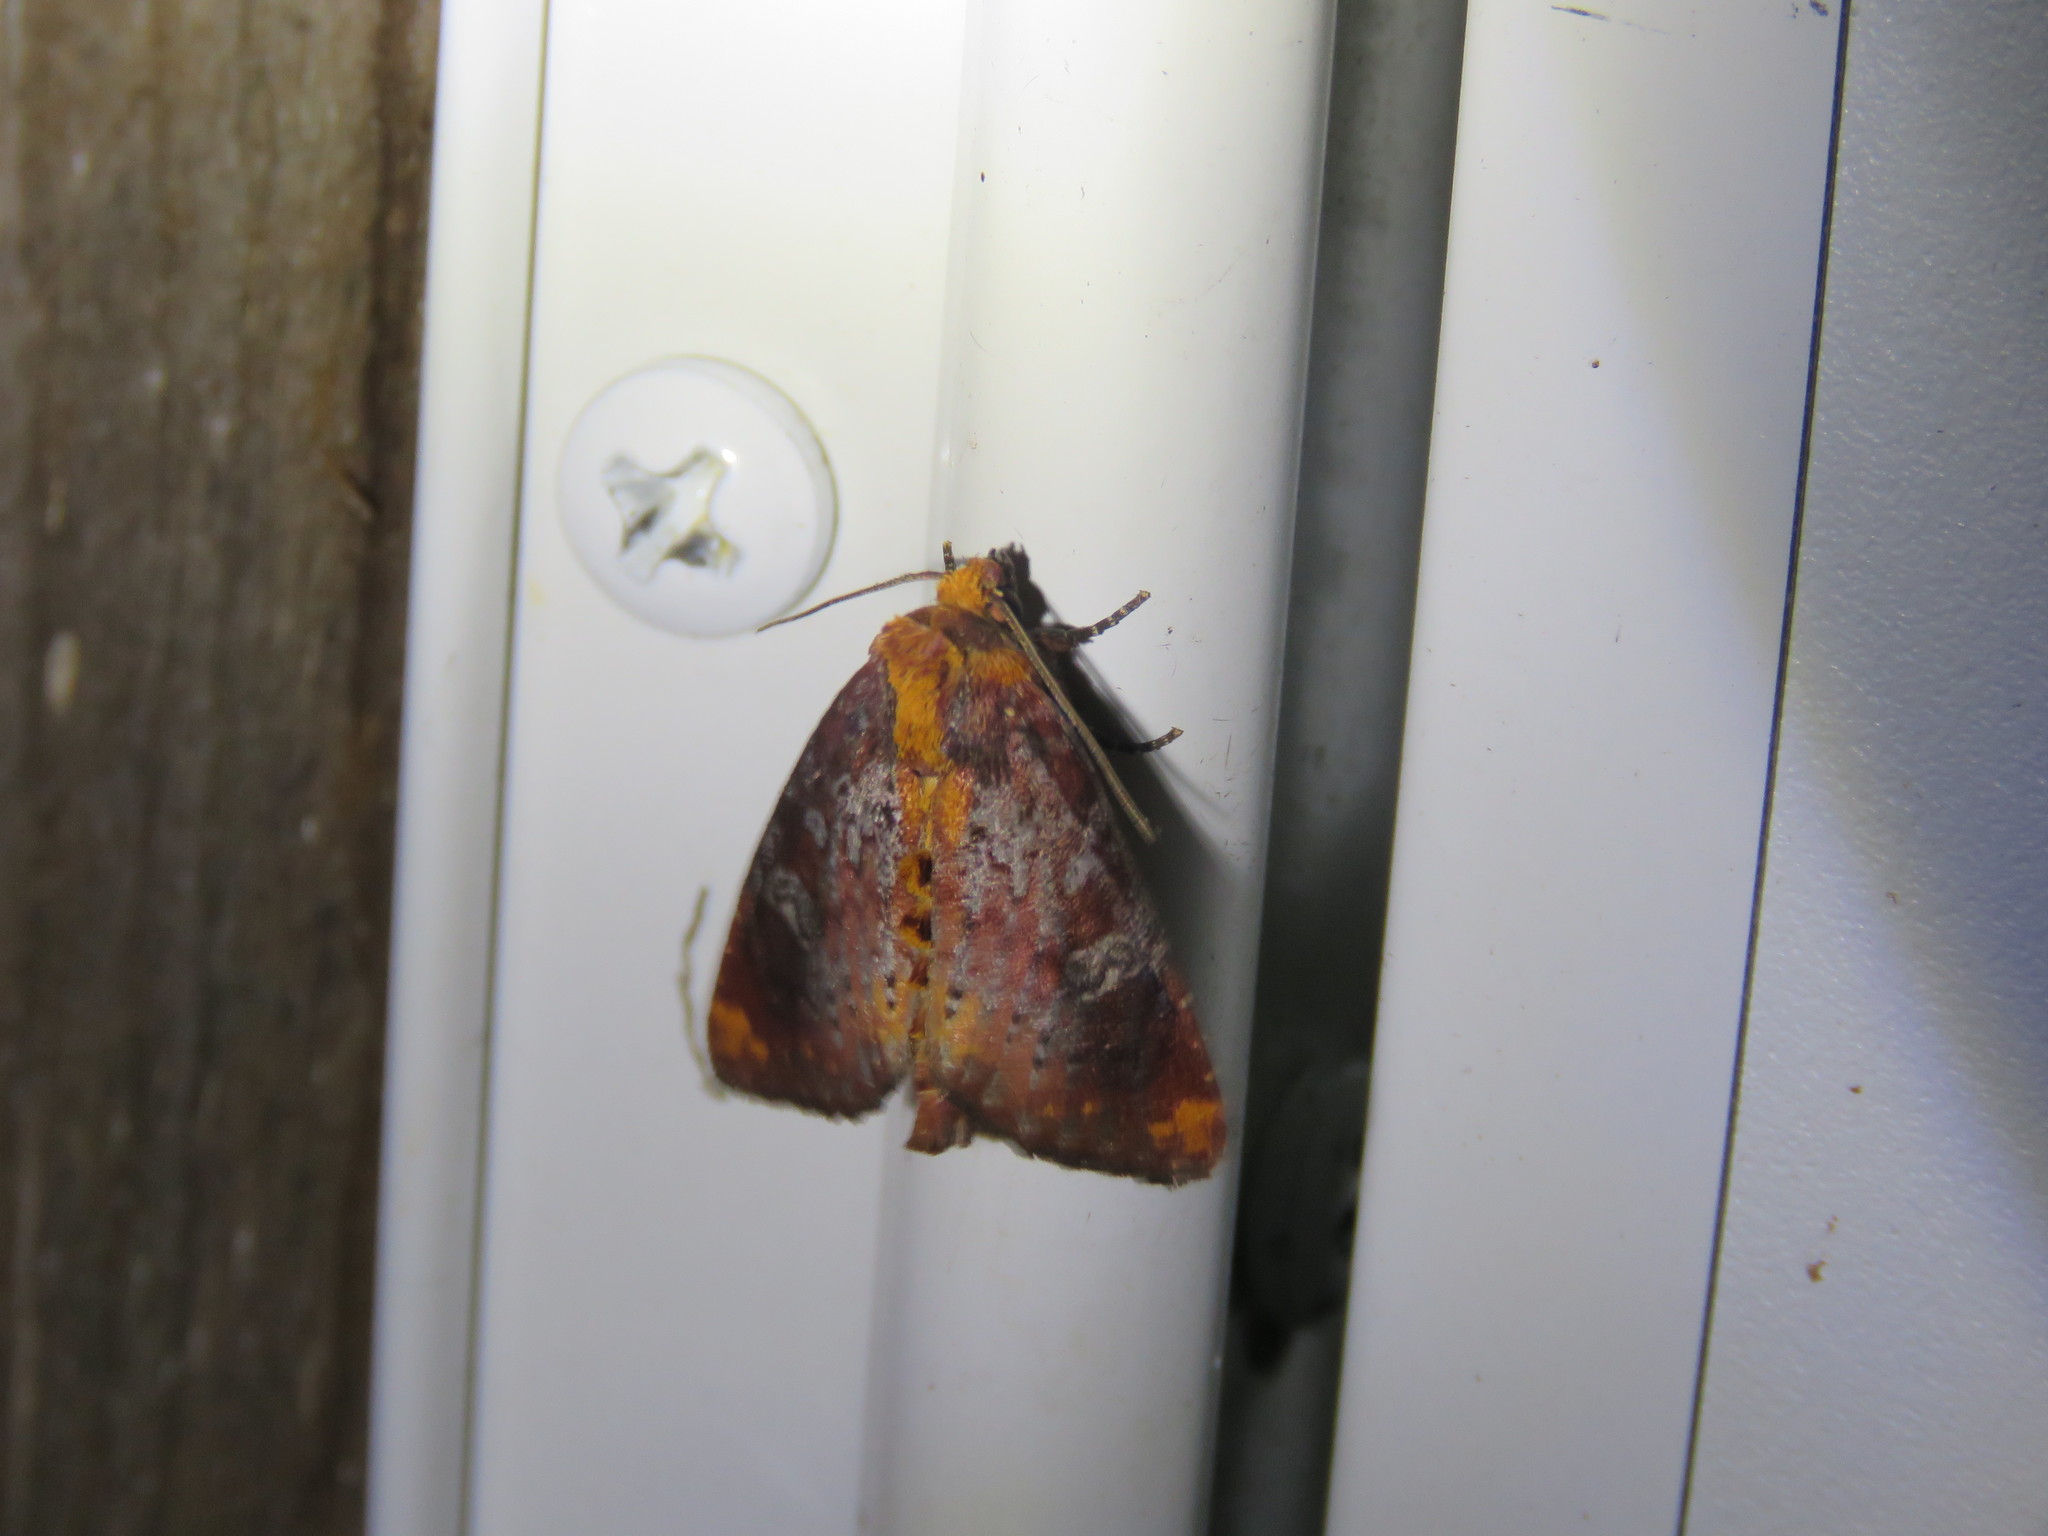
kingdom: Animalia
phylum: Arthropoda
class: Insecta
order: Lepidoptera
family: Noctuidae
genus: Achatodes
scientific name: Achatodes zeae
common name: Elder shoot borer
